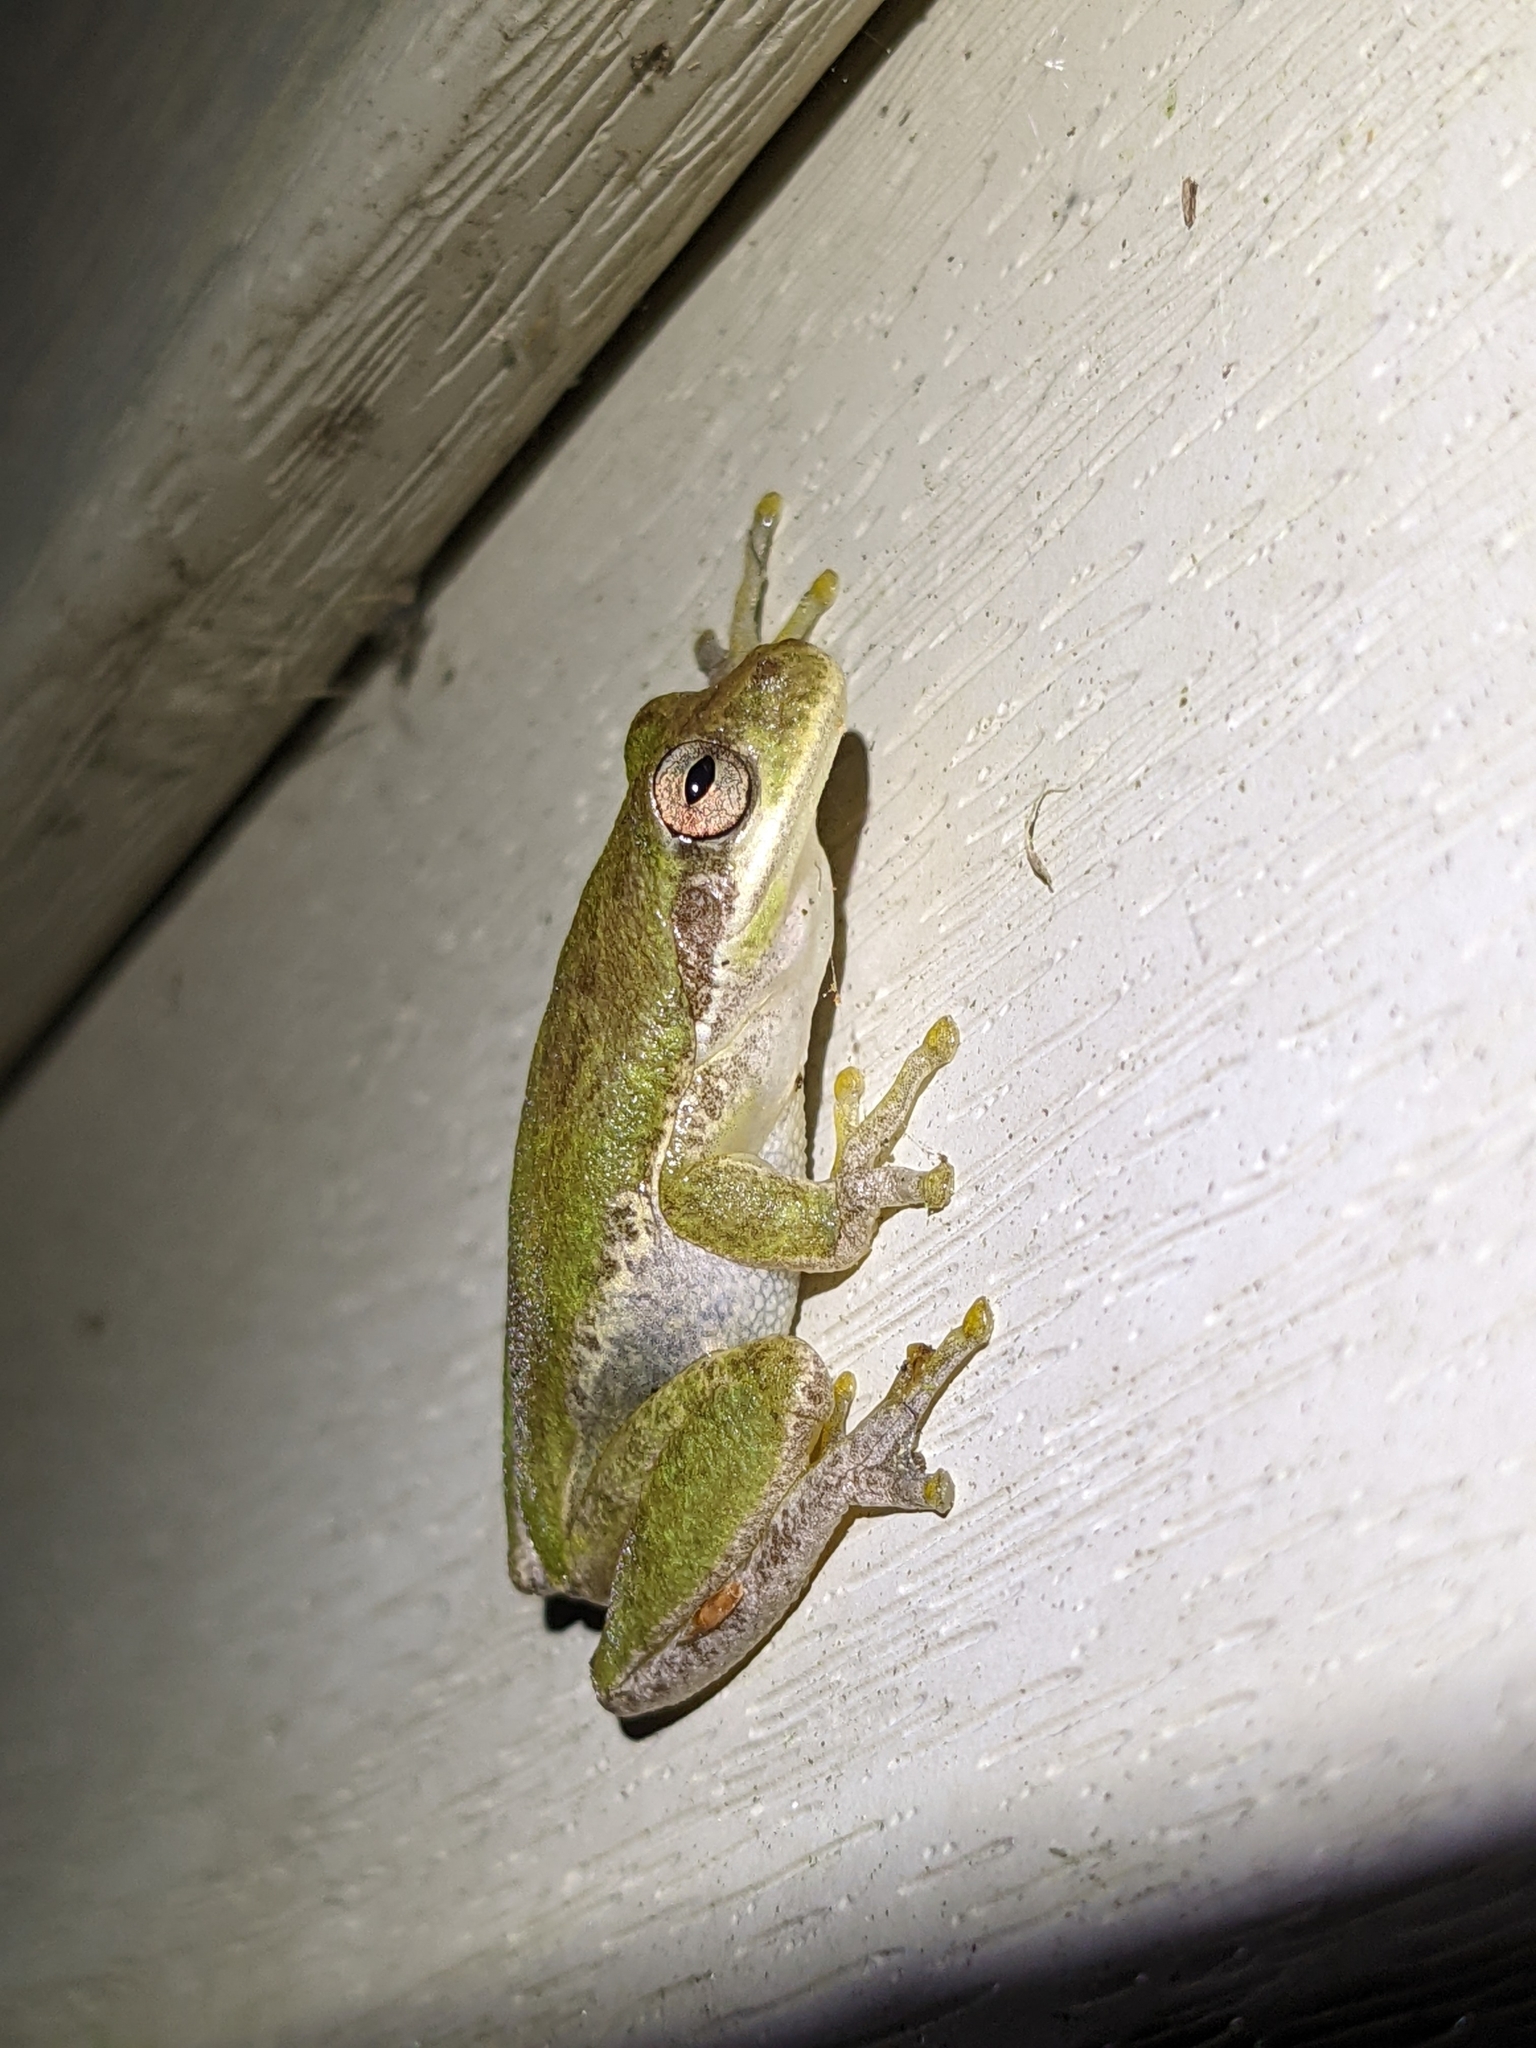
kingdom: Animalia
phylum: Chordata
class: Amphibia
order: Anura
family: Hylidae
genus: Dryophytes
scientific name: Dryophytes squirellus
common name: Squirrel treefrog
